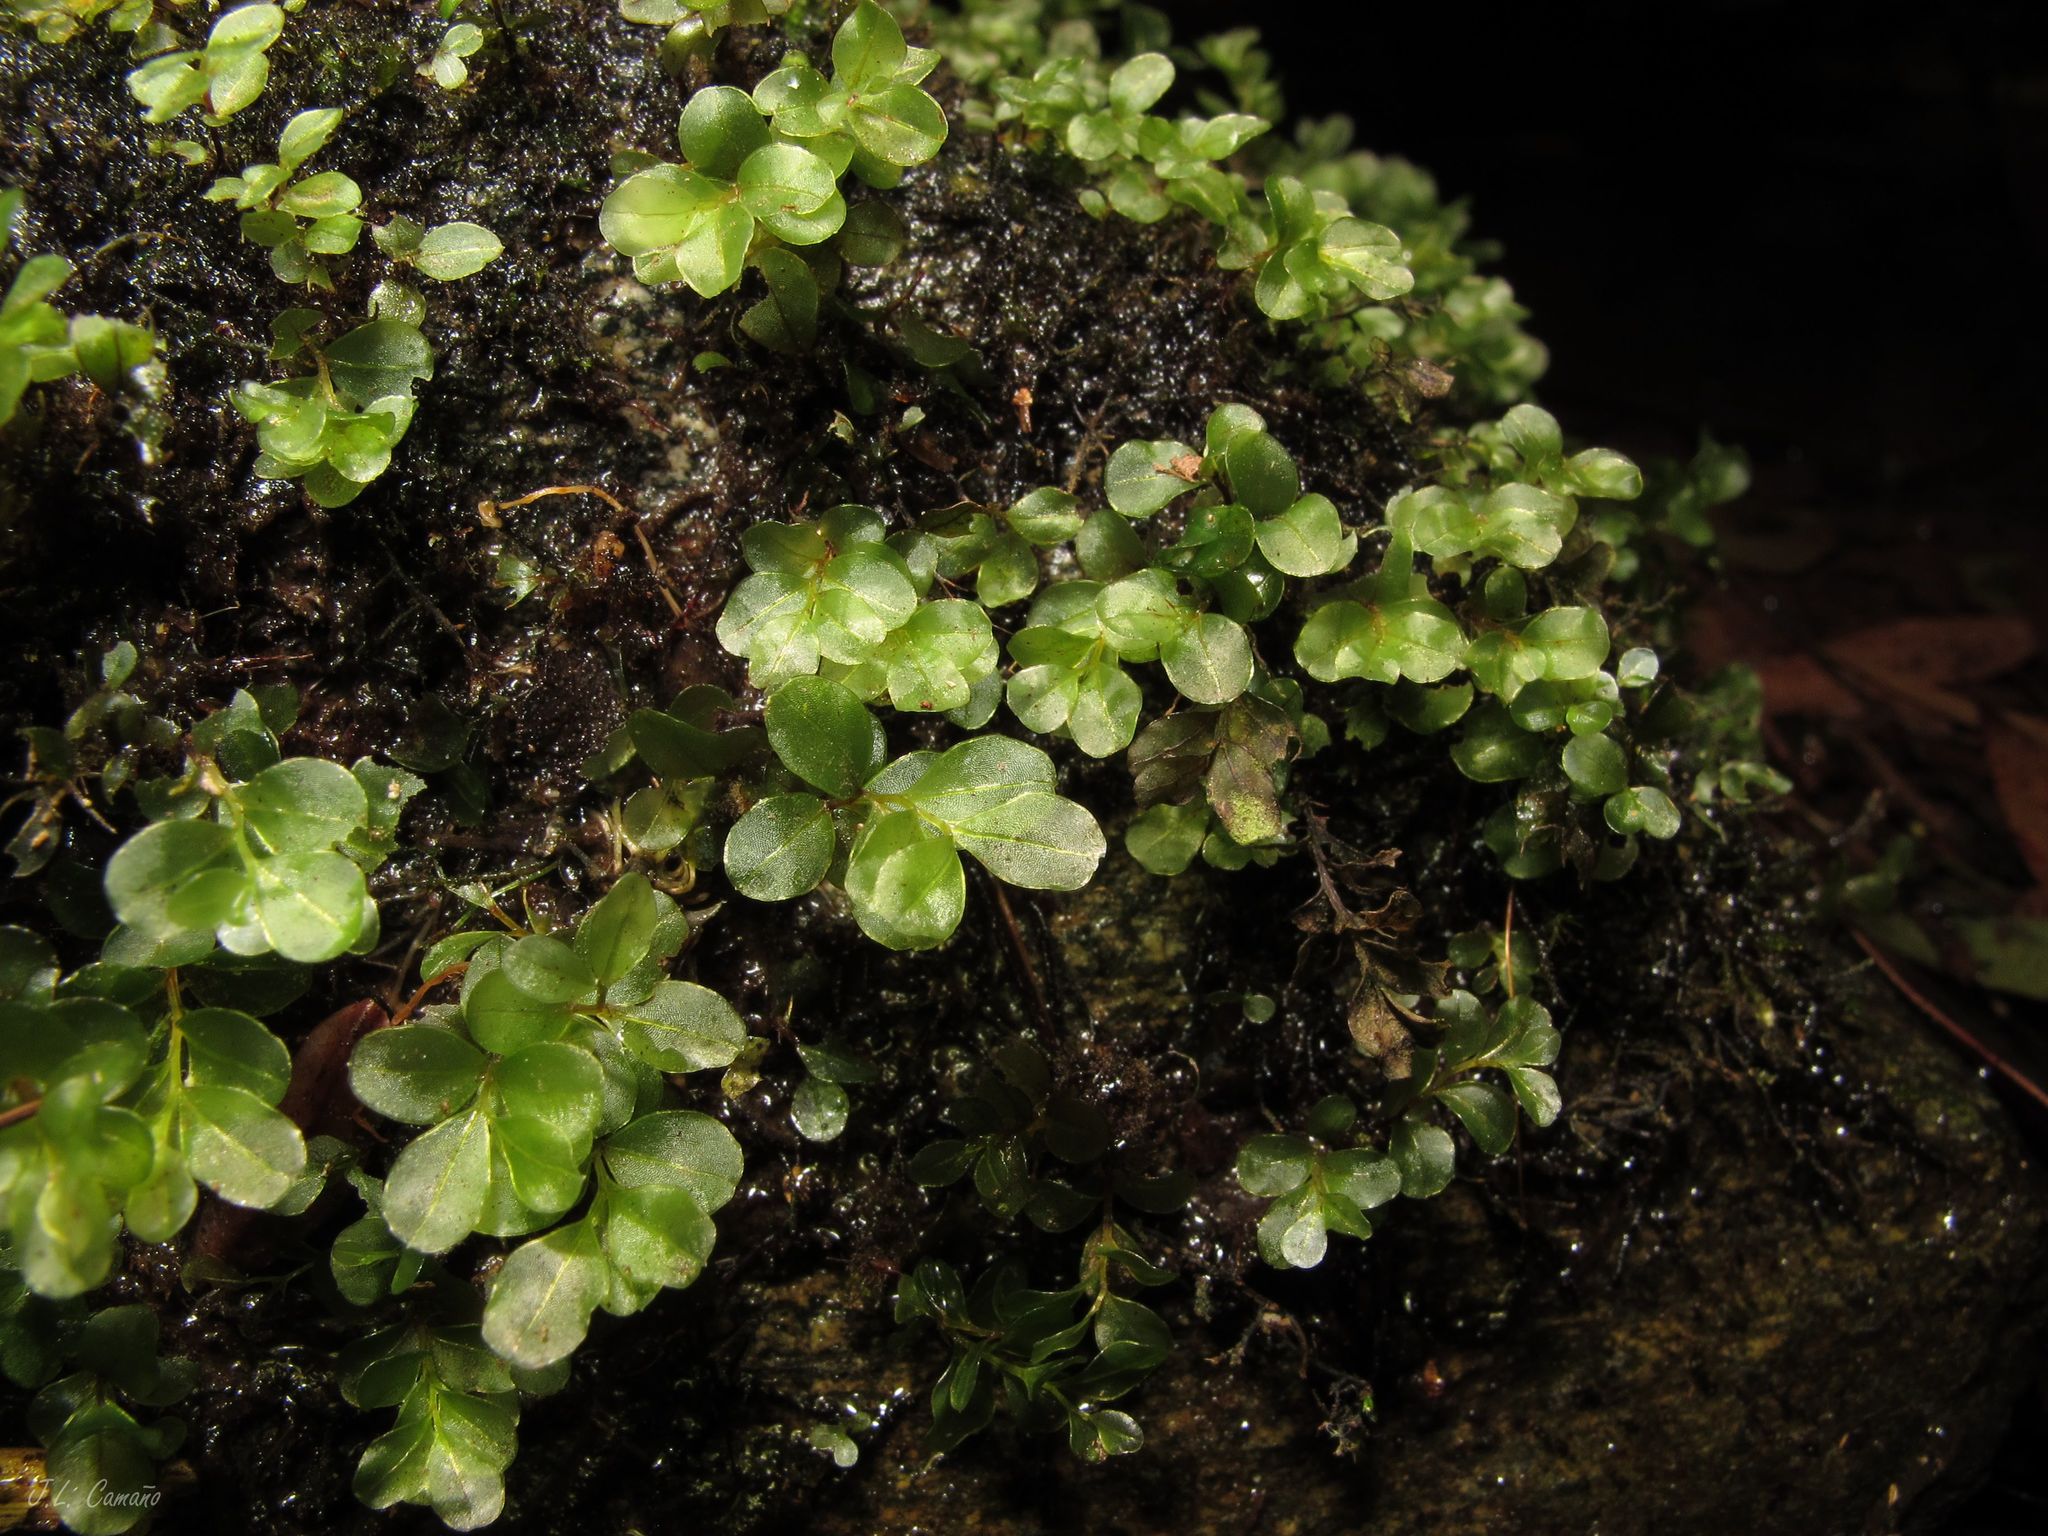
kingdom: Plantae
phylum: Bryophyta
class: Bryopsida
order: Bryales
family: Mniaceae
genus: Rhizomnium
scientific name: Rhizomnium punctatum
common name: Dotted leafy moss
